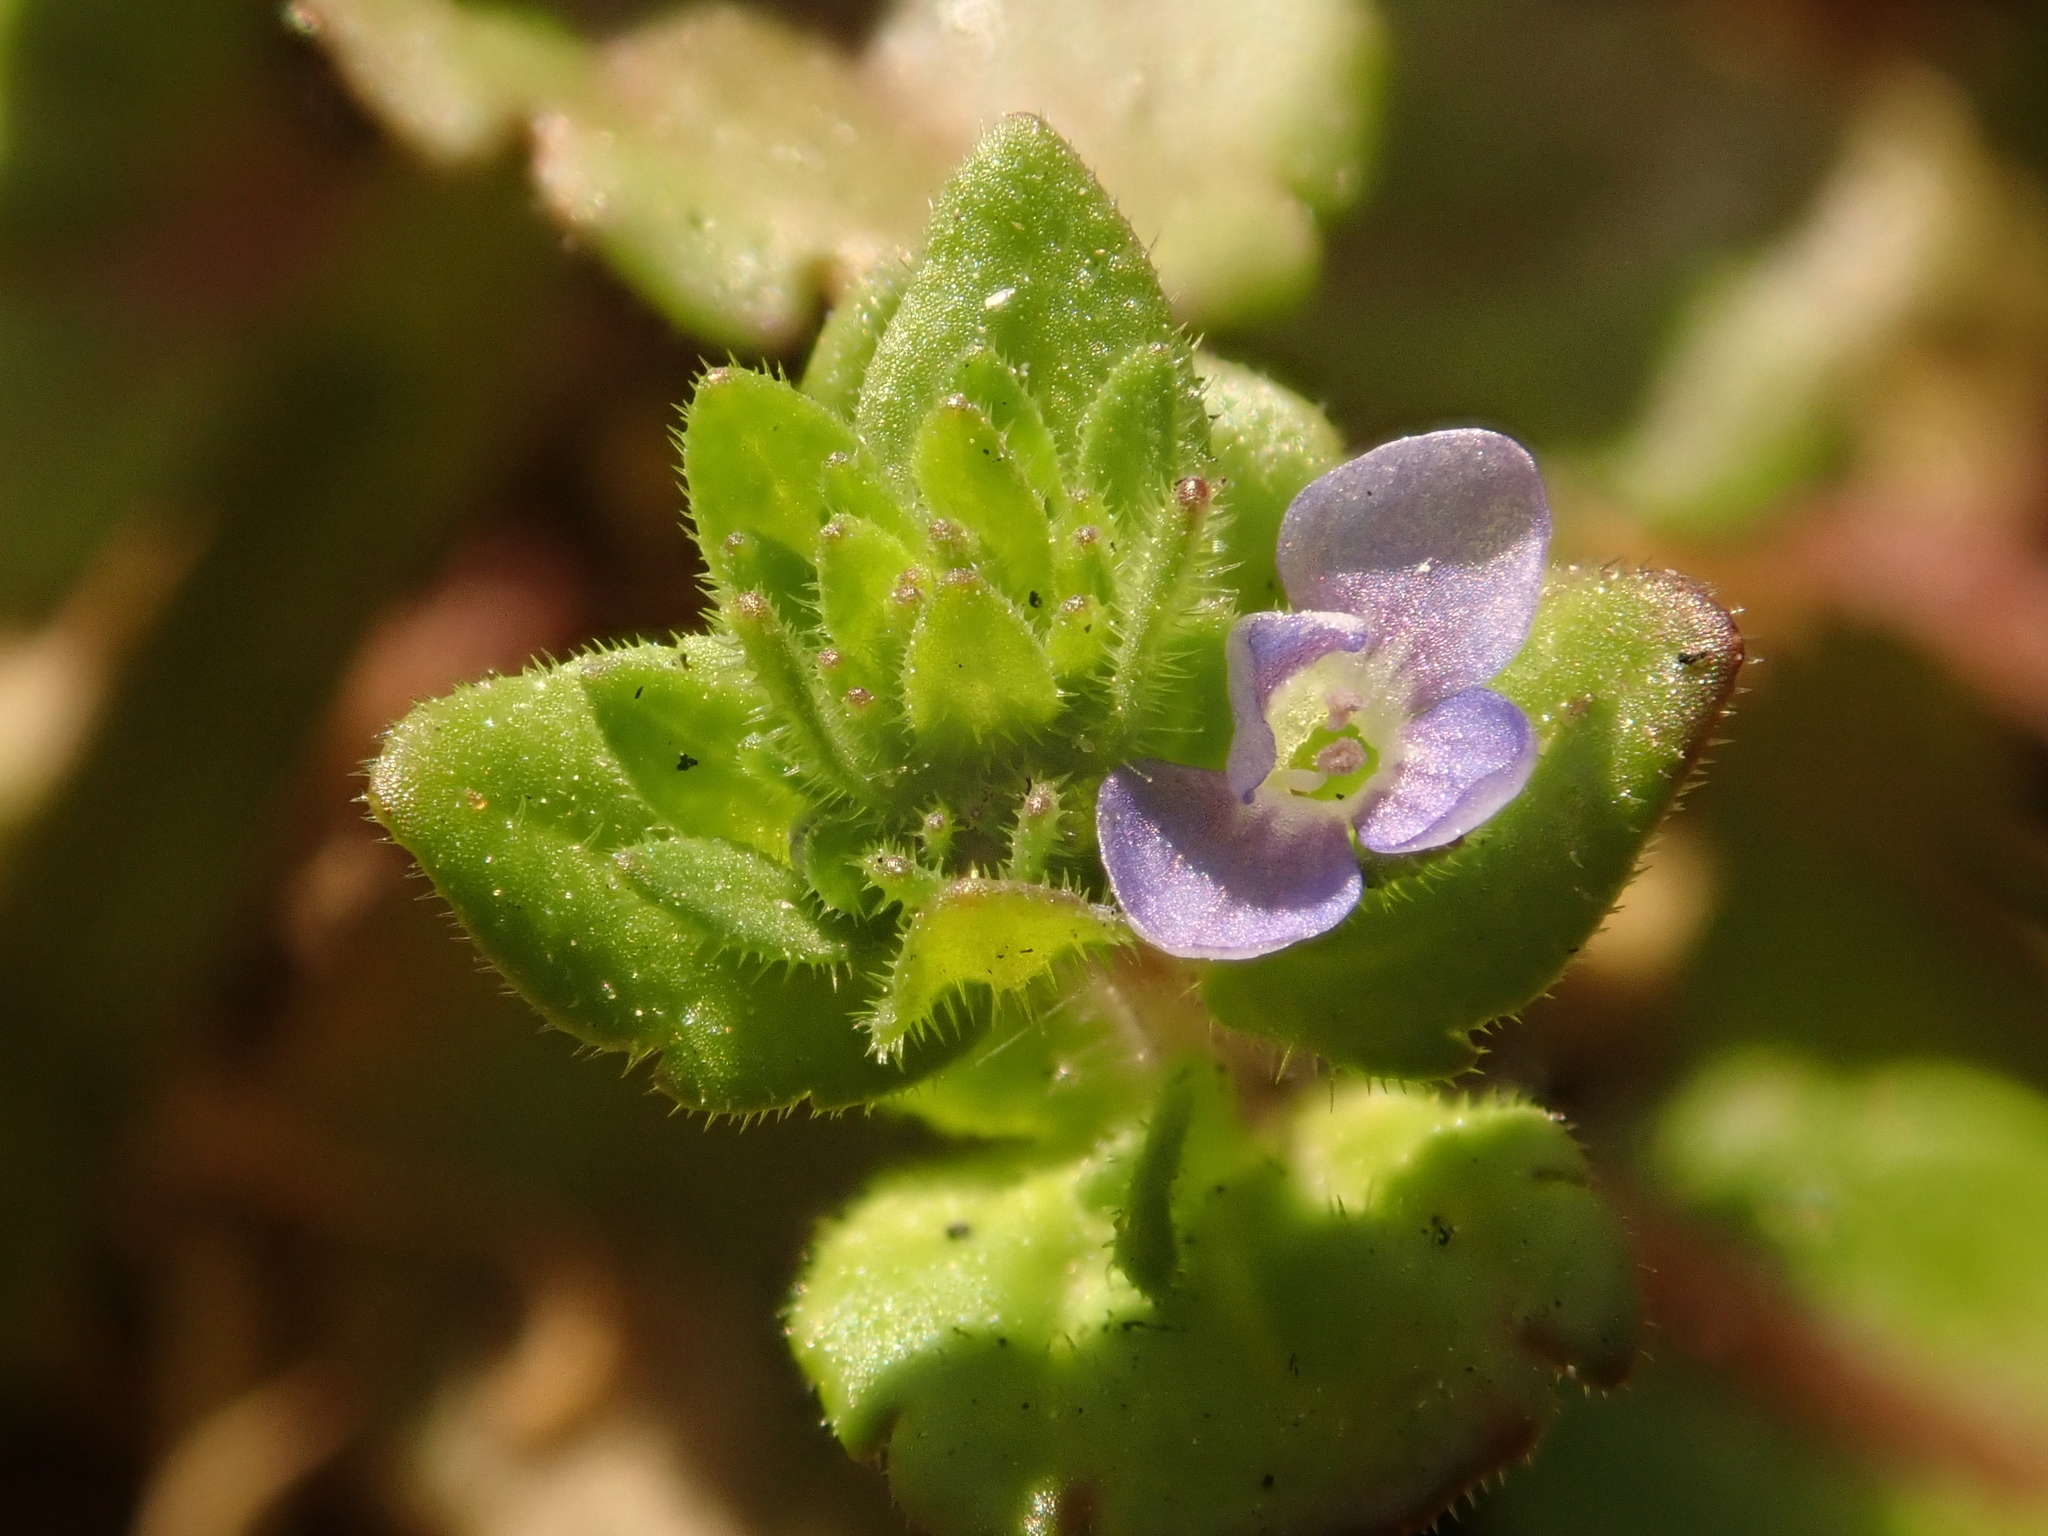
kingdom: Plantae
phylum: Tracheophyta
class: Magnoliopsida
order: Lamiales
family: Plantaginaceae
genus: Veronica
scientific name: Veronica arvensis
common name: Corn speedwell
